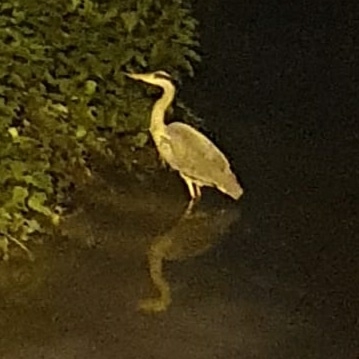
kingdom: Animalia
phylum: Chordata
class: Aves
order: Pelecaniformes
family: Ardeidae
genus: Ardea
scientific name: Ardea cinerea
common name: Grey heron
